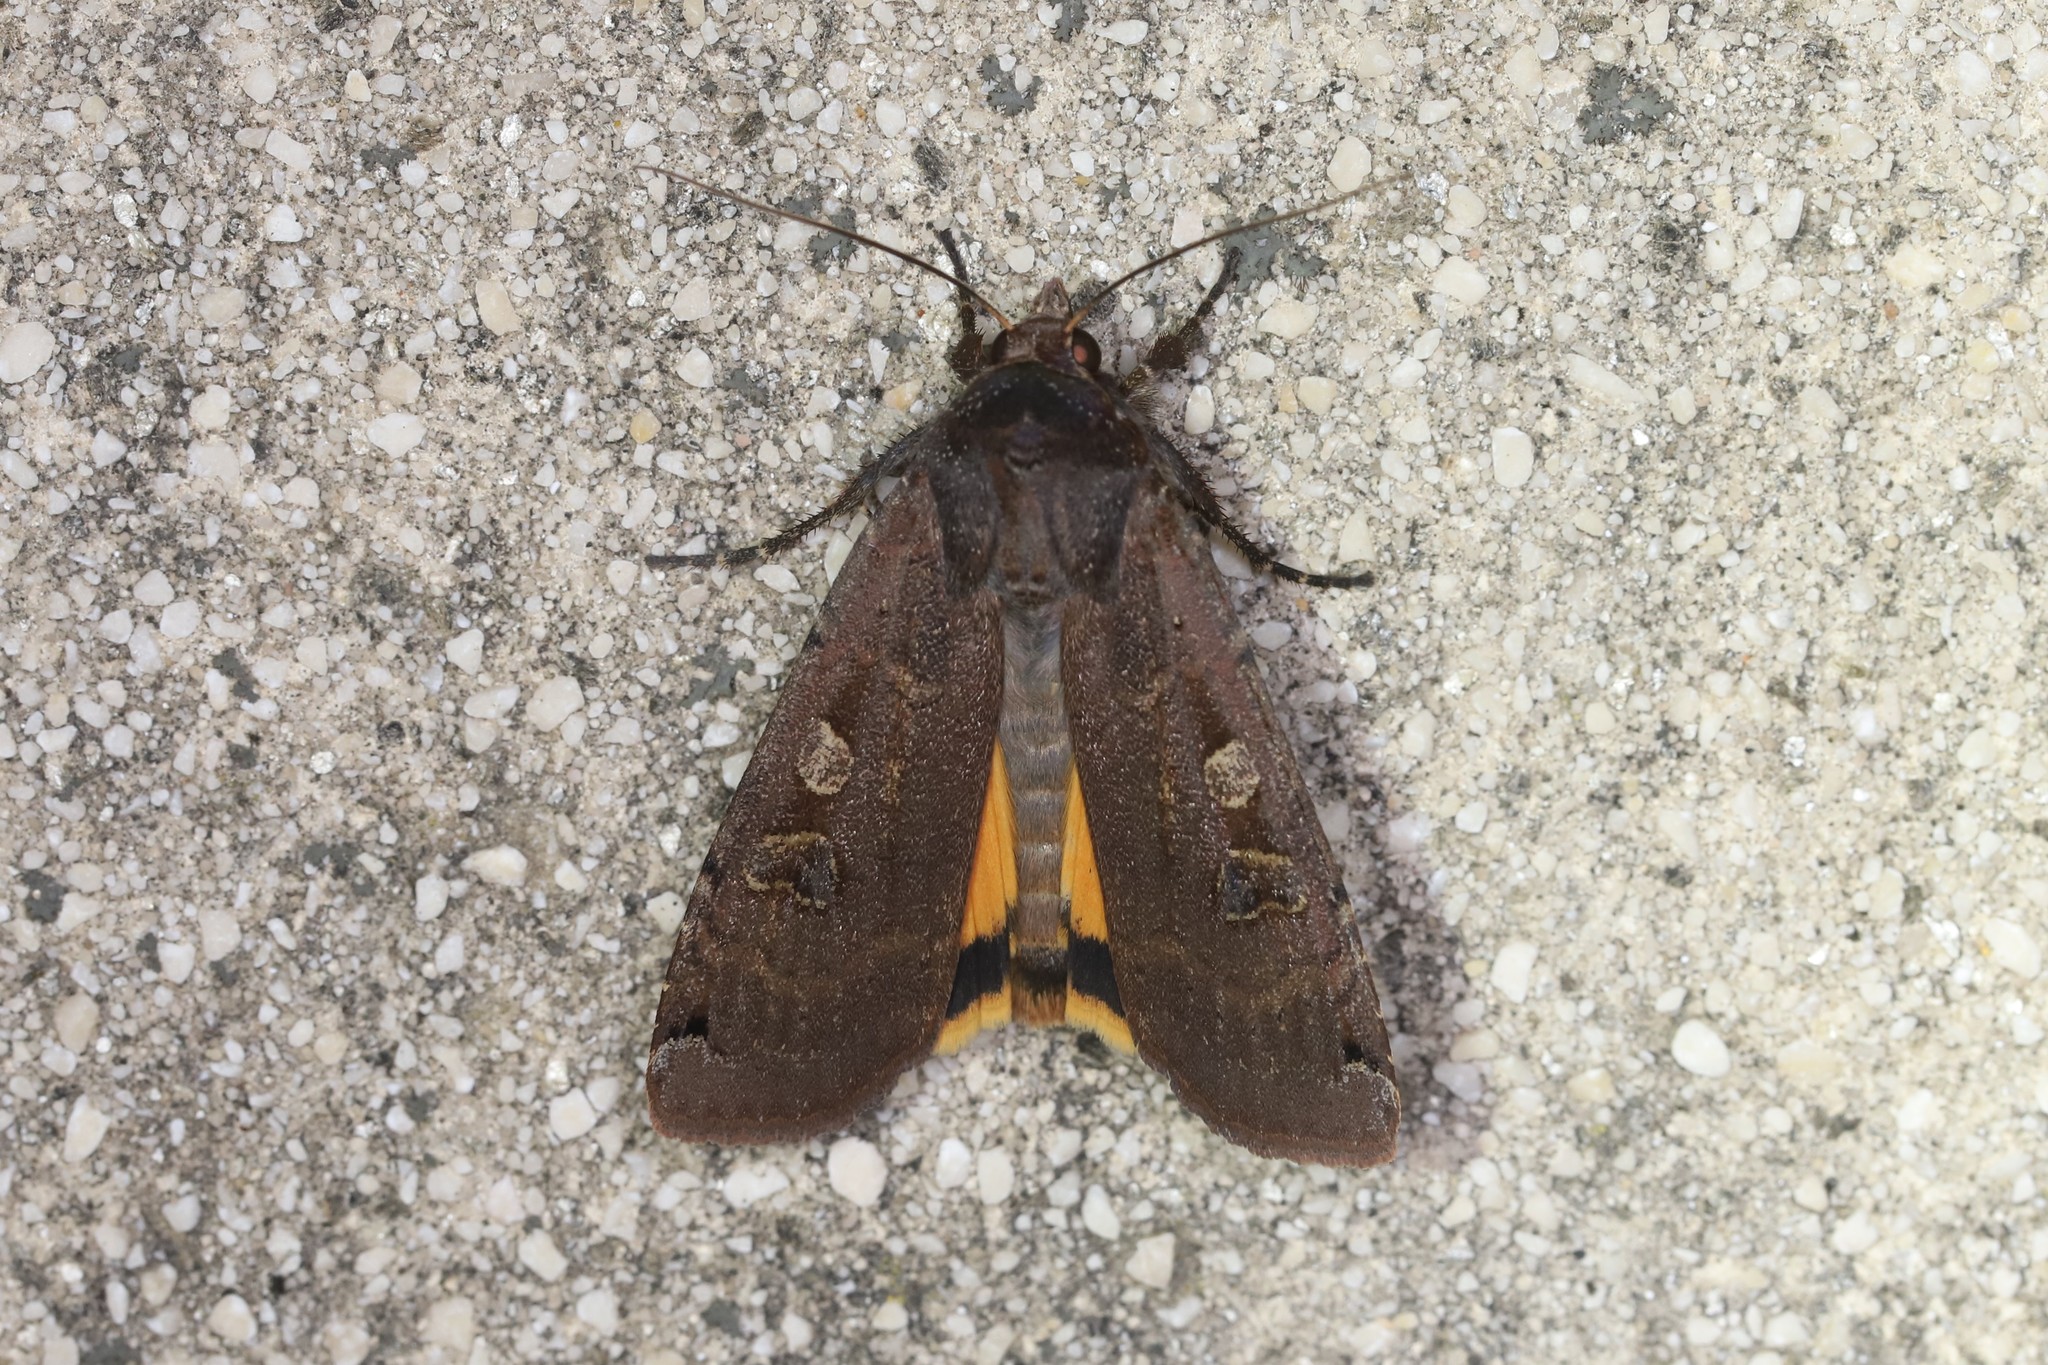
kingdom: Animalia
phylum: Arthropoda
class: Insecta
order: Lepidoptera
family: Noctuidae
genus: Noctua
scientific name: Noctua pronuba
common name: Large yellow underwing
